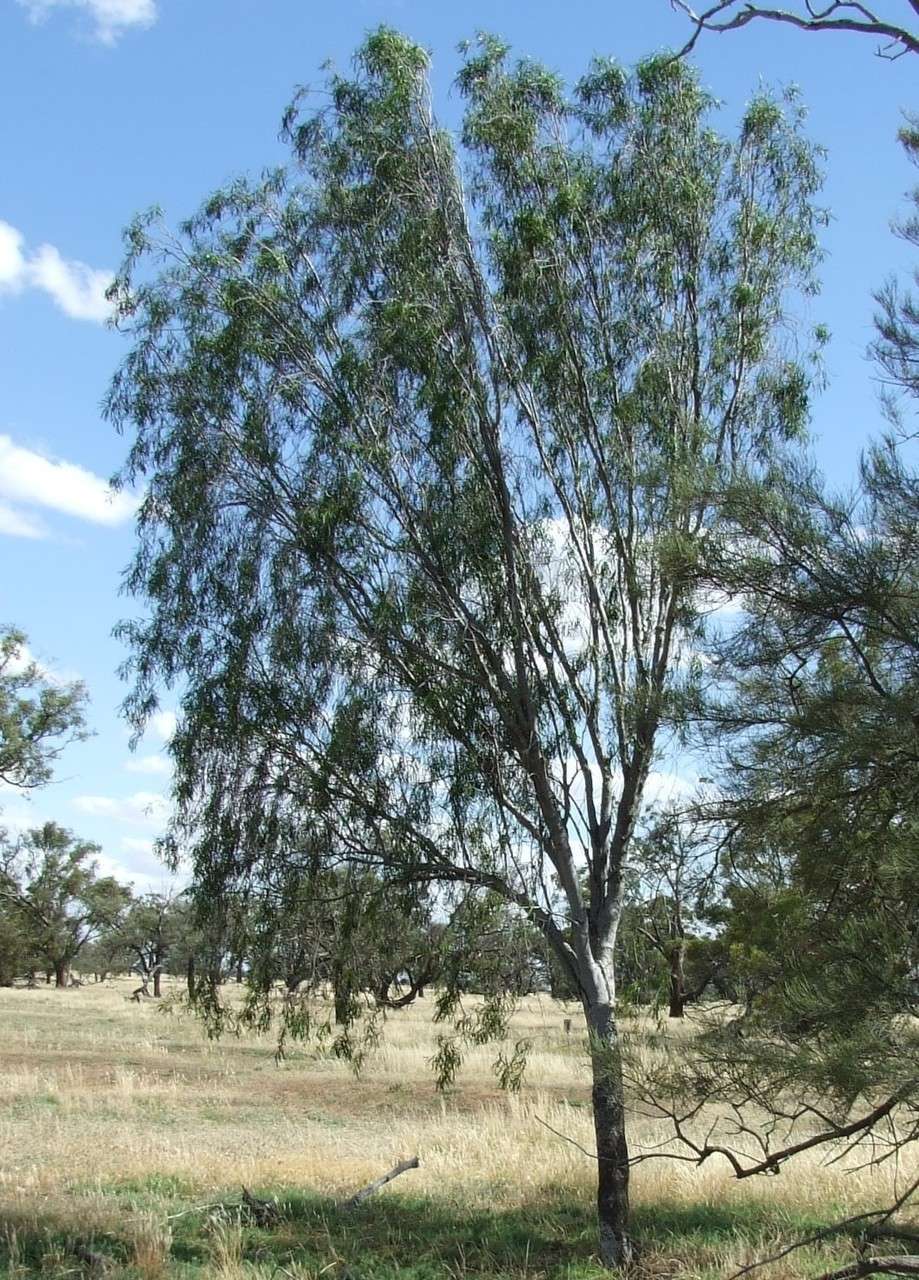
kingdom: Plantae
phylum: Tracheophyta
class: Magnoliopsida
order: Apiales
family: Pittosporaceae
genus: Pittosporum
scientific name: Pittosporum angustifolium
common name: Weeping pittosporum
